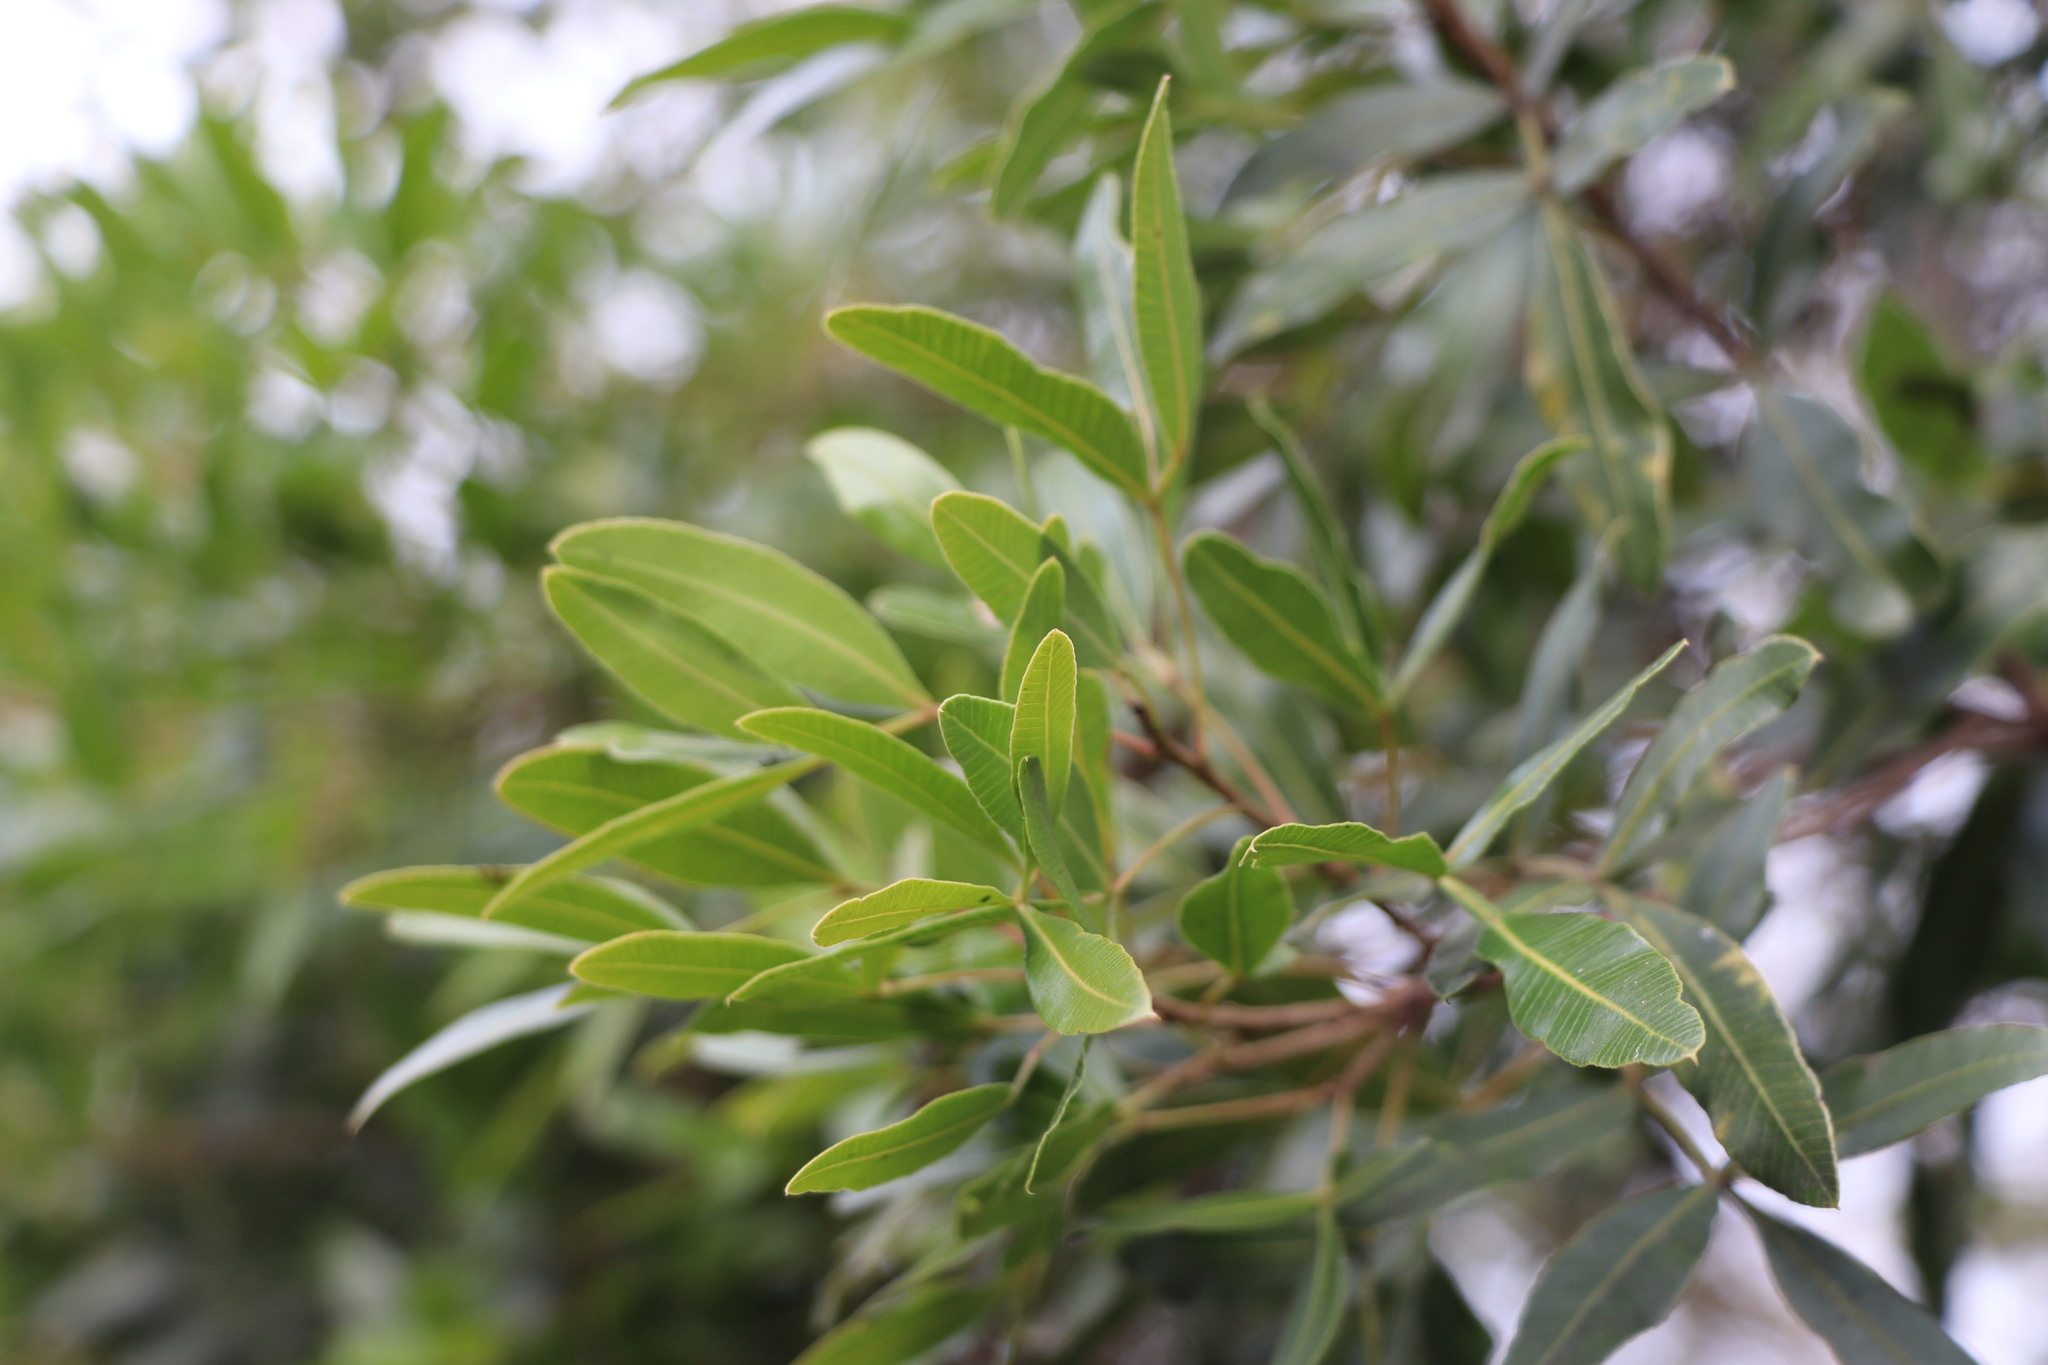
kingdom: Plantae
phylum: Tracheophyta
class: Magnoliopsida
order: Sapindales
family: Anacardiaceae
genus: Lithraea
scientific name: Lithraea molleoides
